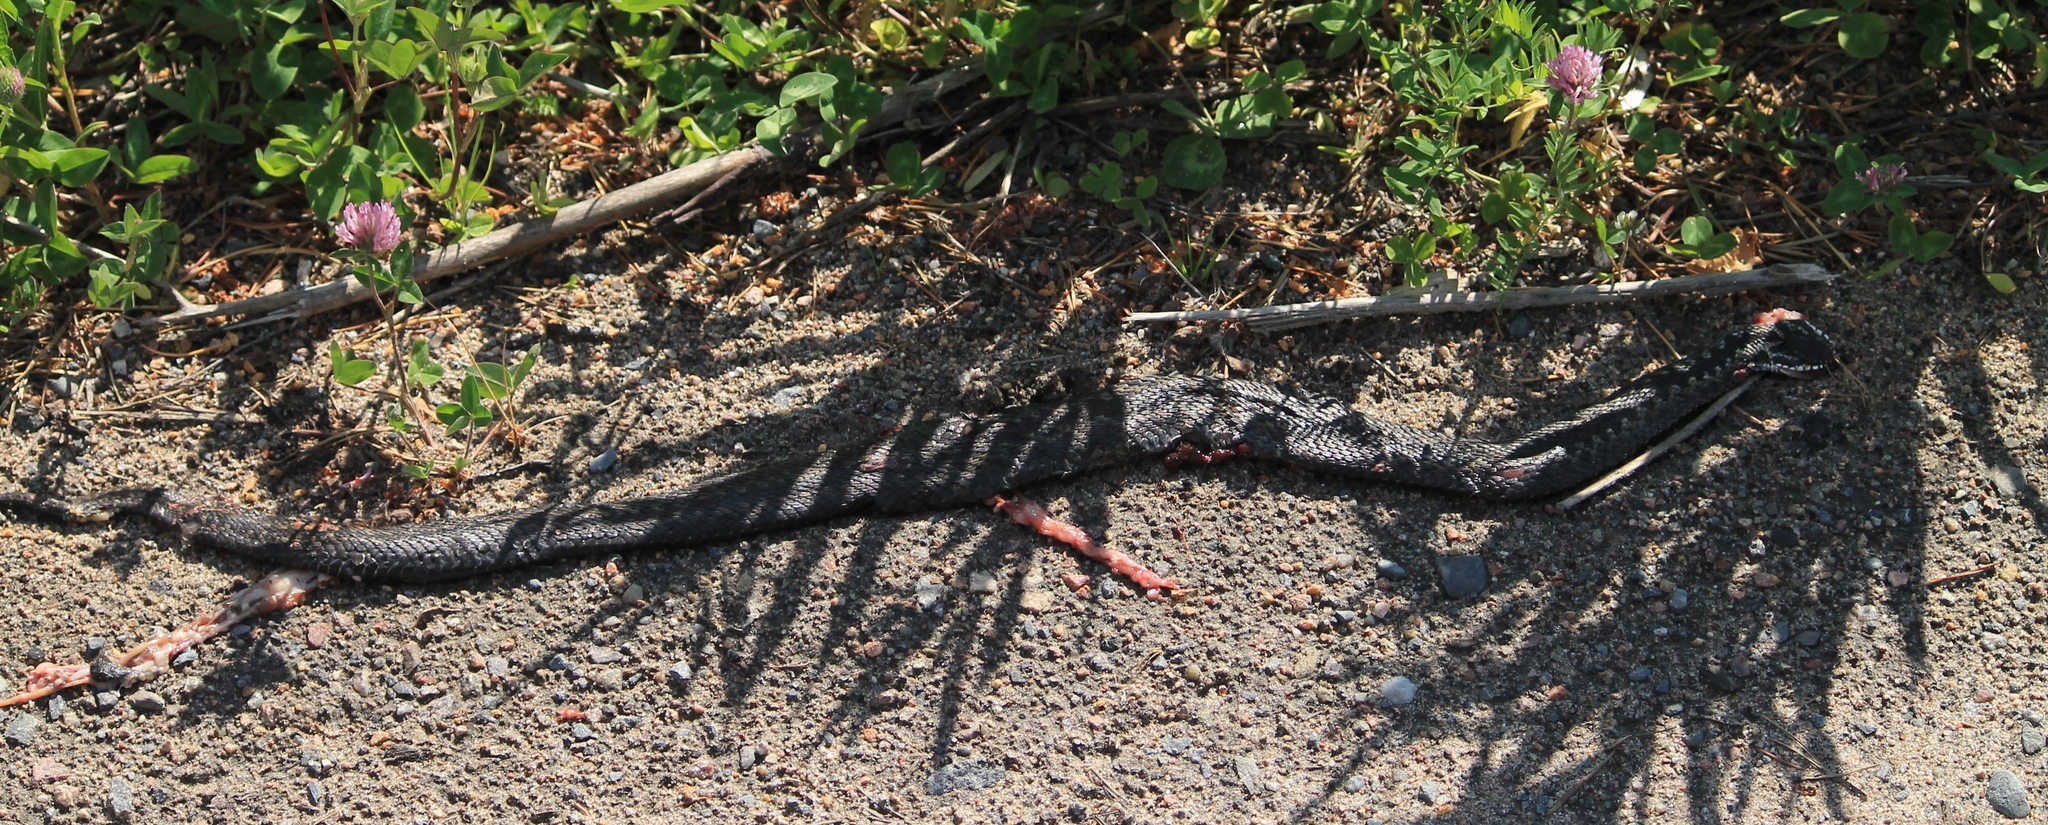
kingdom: Animalia
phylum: Chordata
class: Squamata
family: Viperidae
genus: Vipera
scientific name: Vipera berus
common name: Adder
